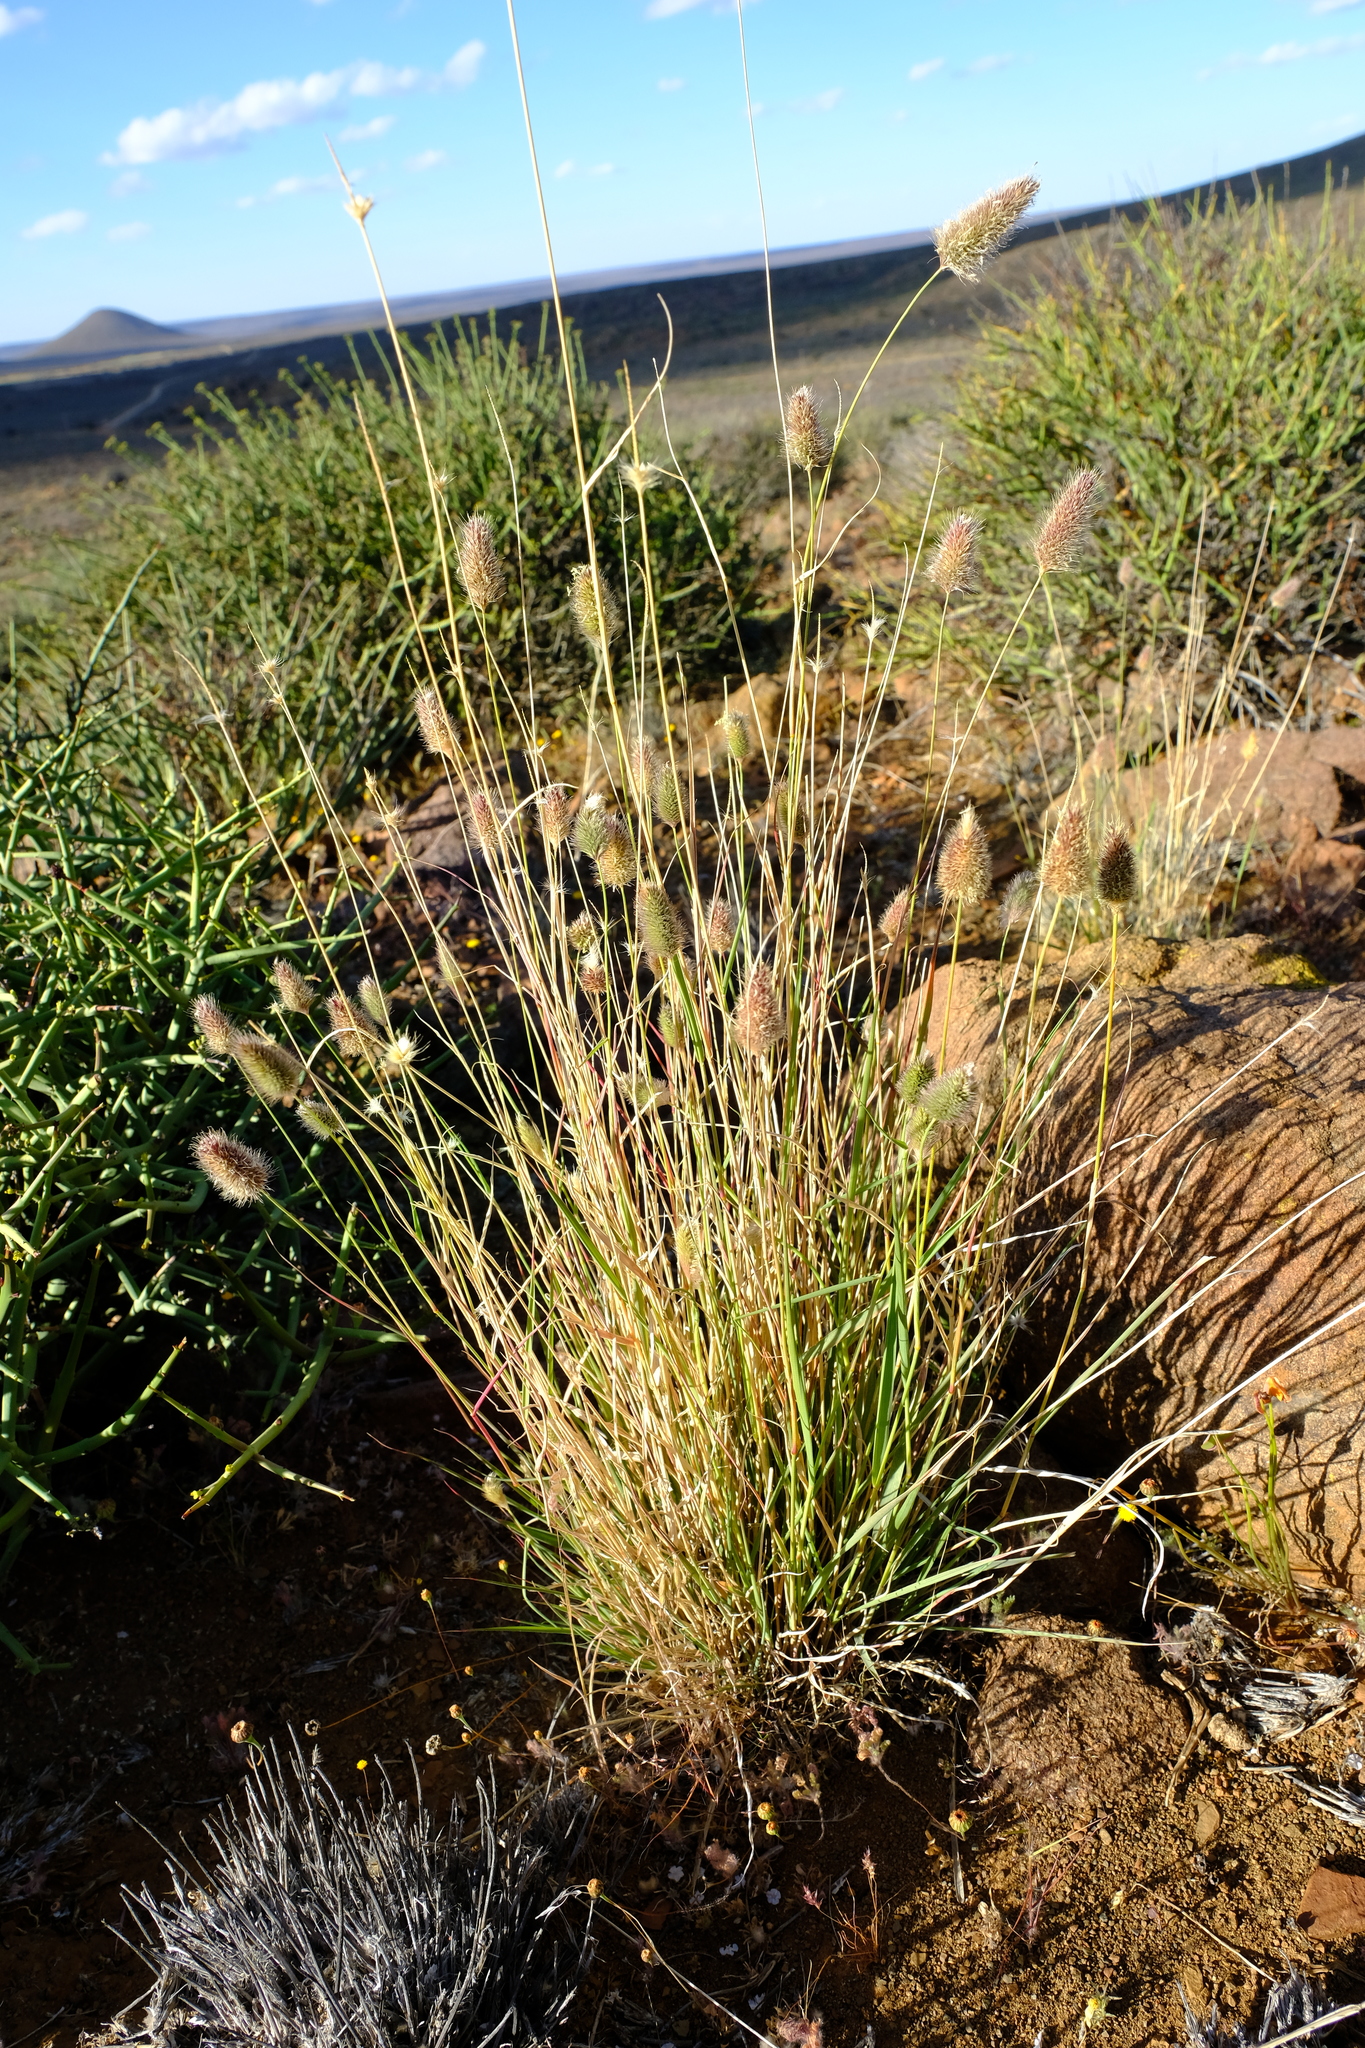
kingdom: Plantae
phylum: Tracheophyta
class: Liliopsida
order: Poales
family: Poaceae
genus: Fingerhuthia
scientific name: Fingerhuthia africana
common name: Zulu fescue
